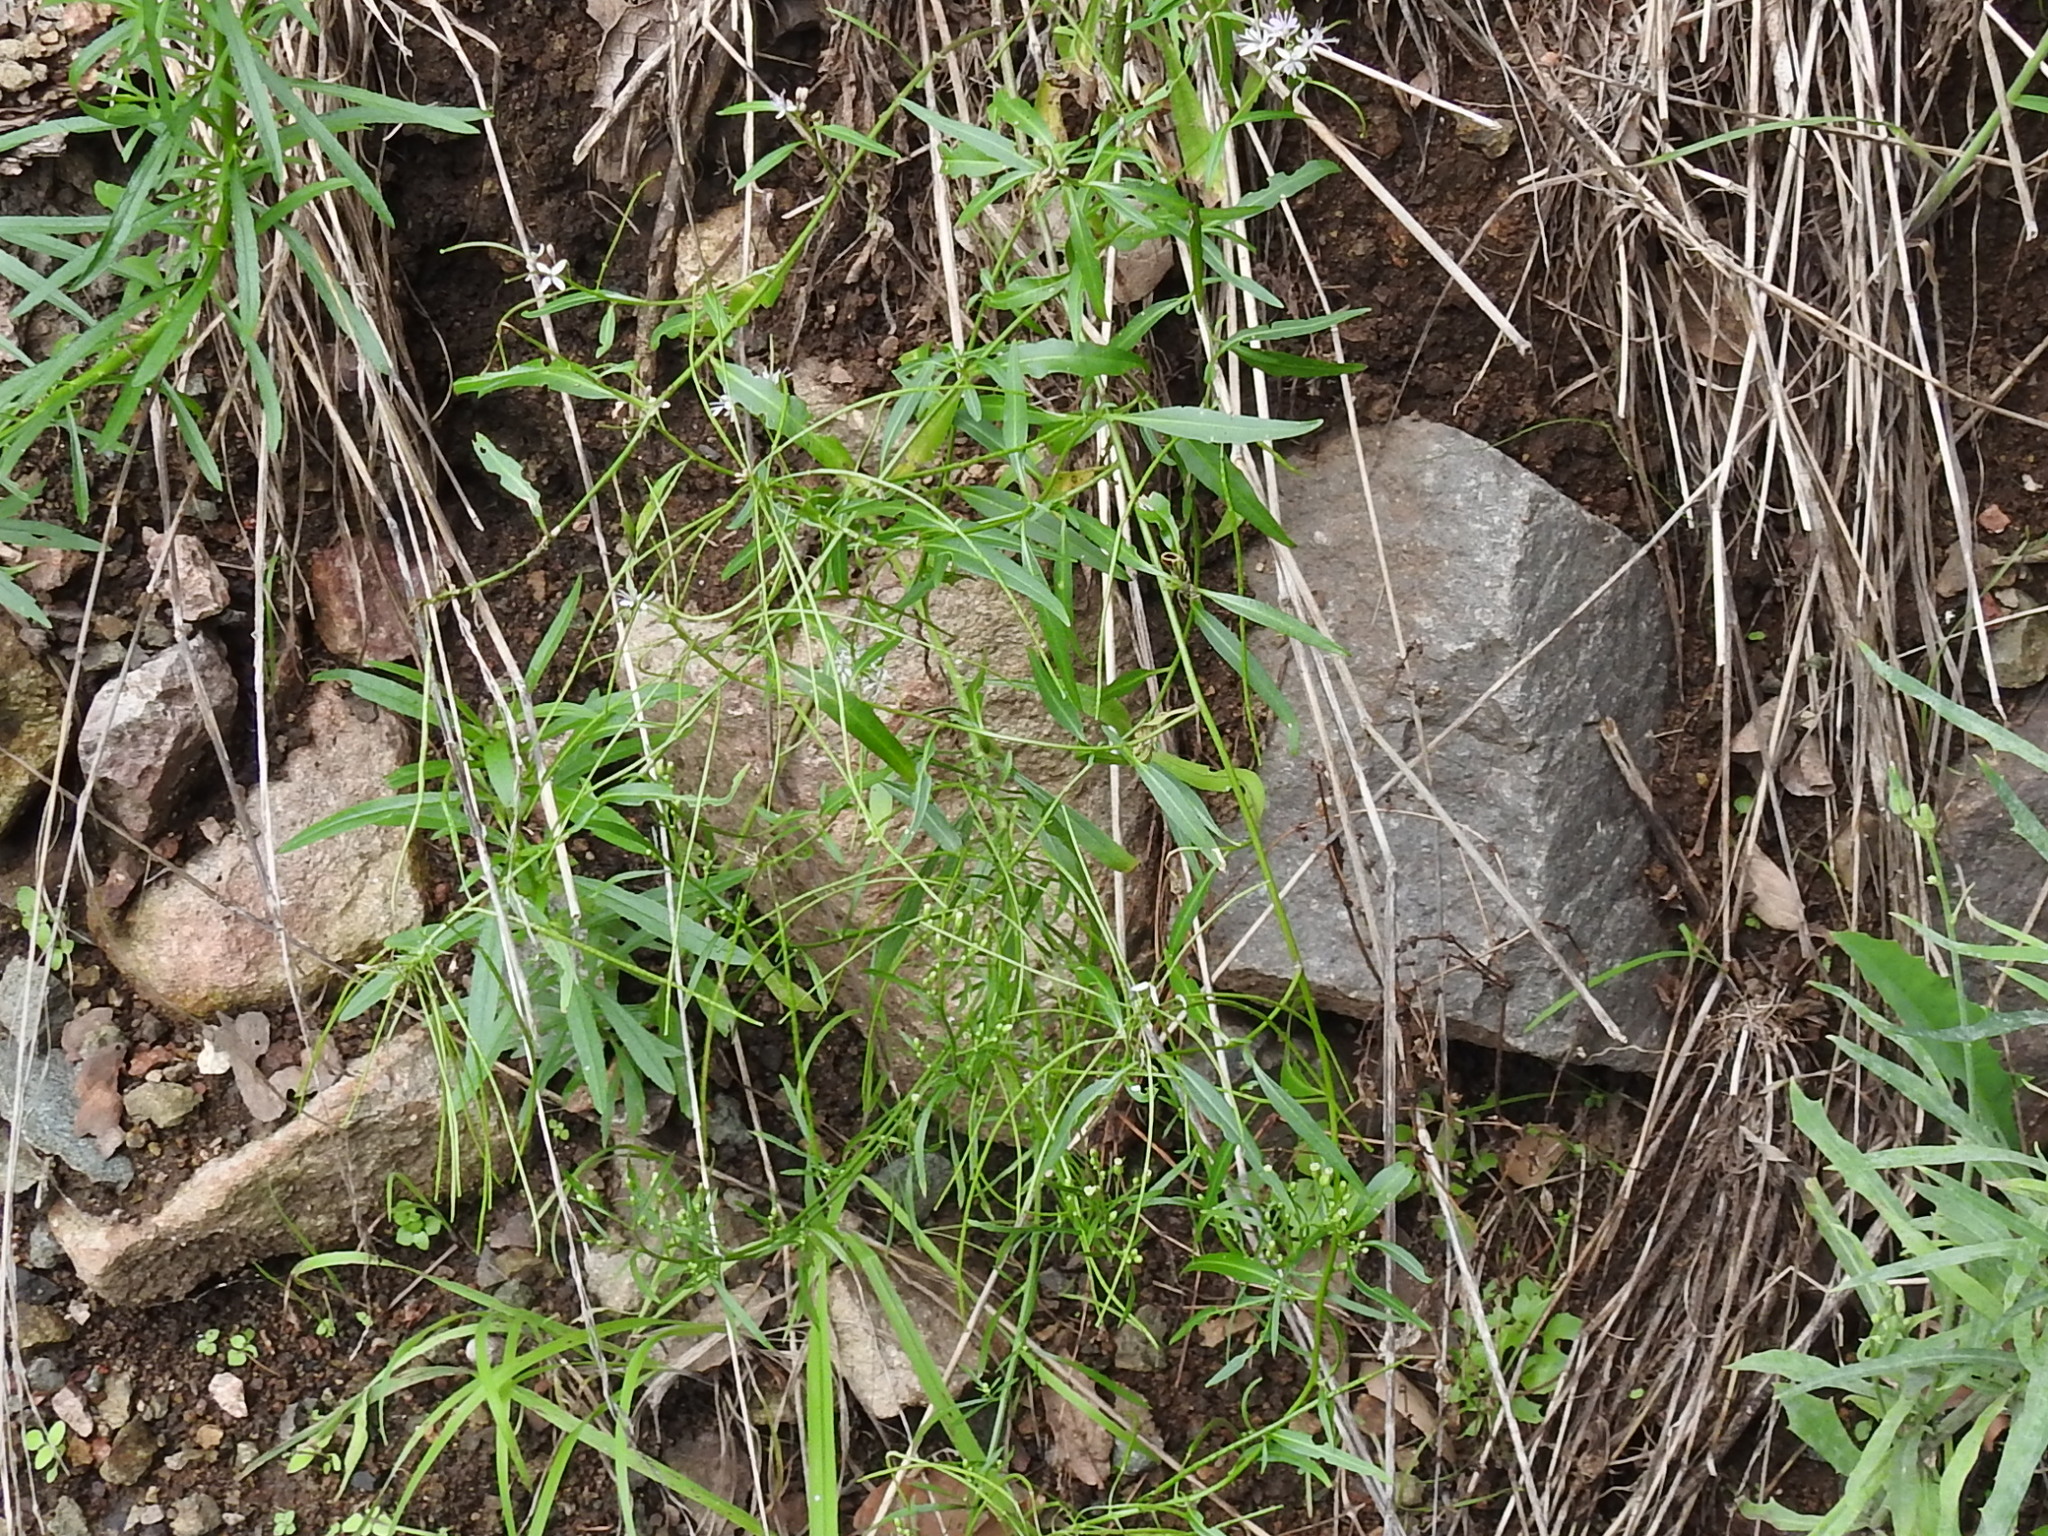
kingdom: Plantae
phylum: Tracheophyta
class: Magnoliopsida
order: Brassicales
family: Brassicaceae
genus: Thelypodium
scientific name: Thelypodium wrightii
